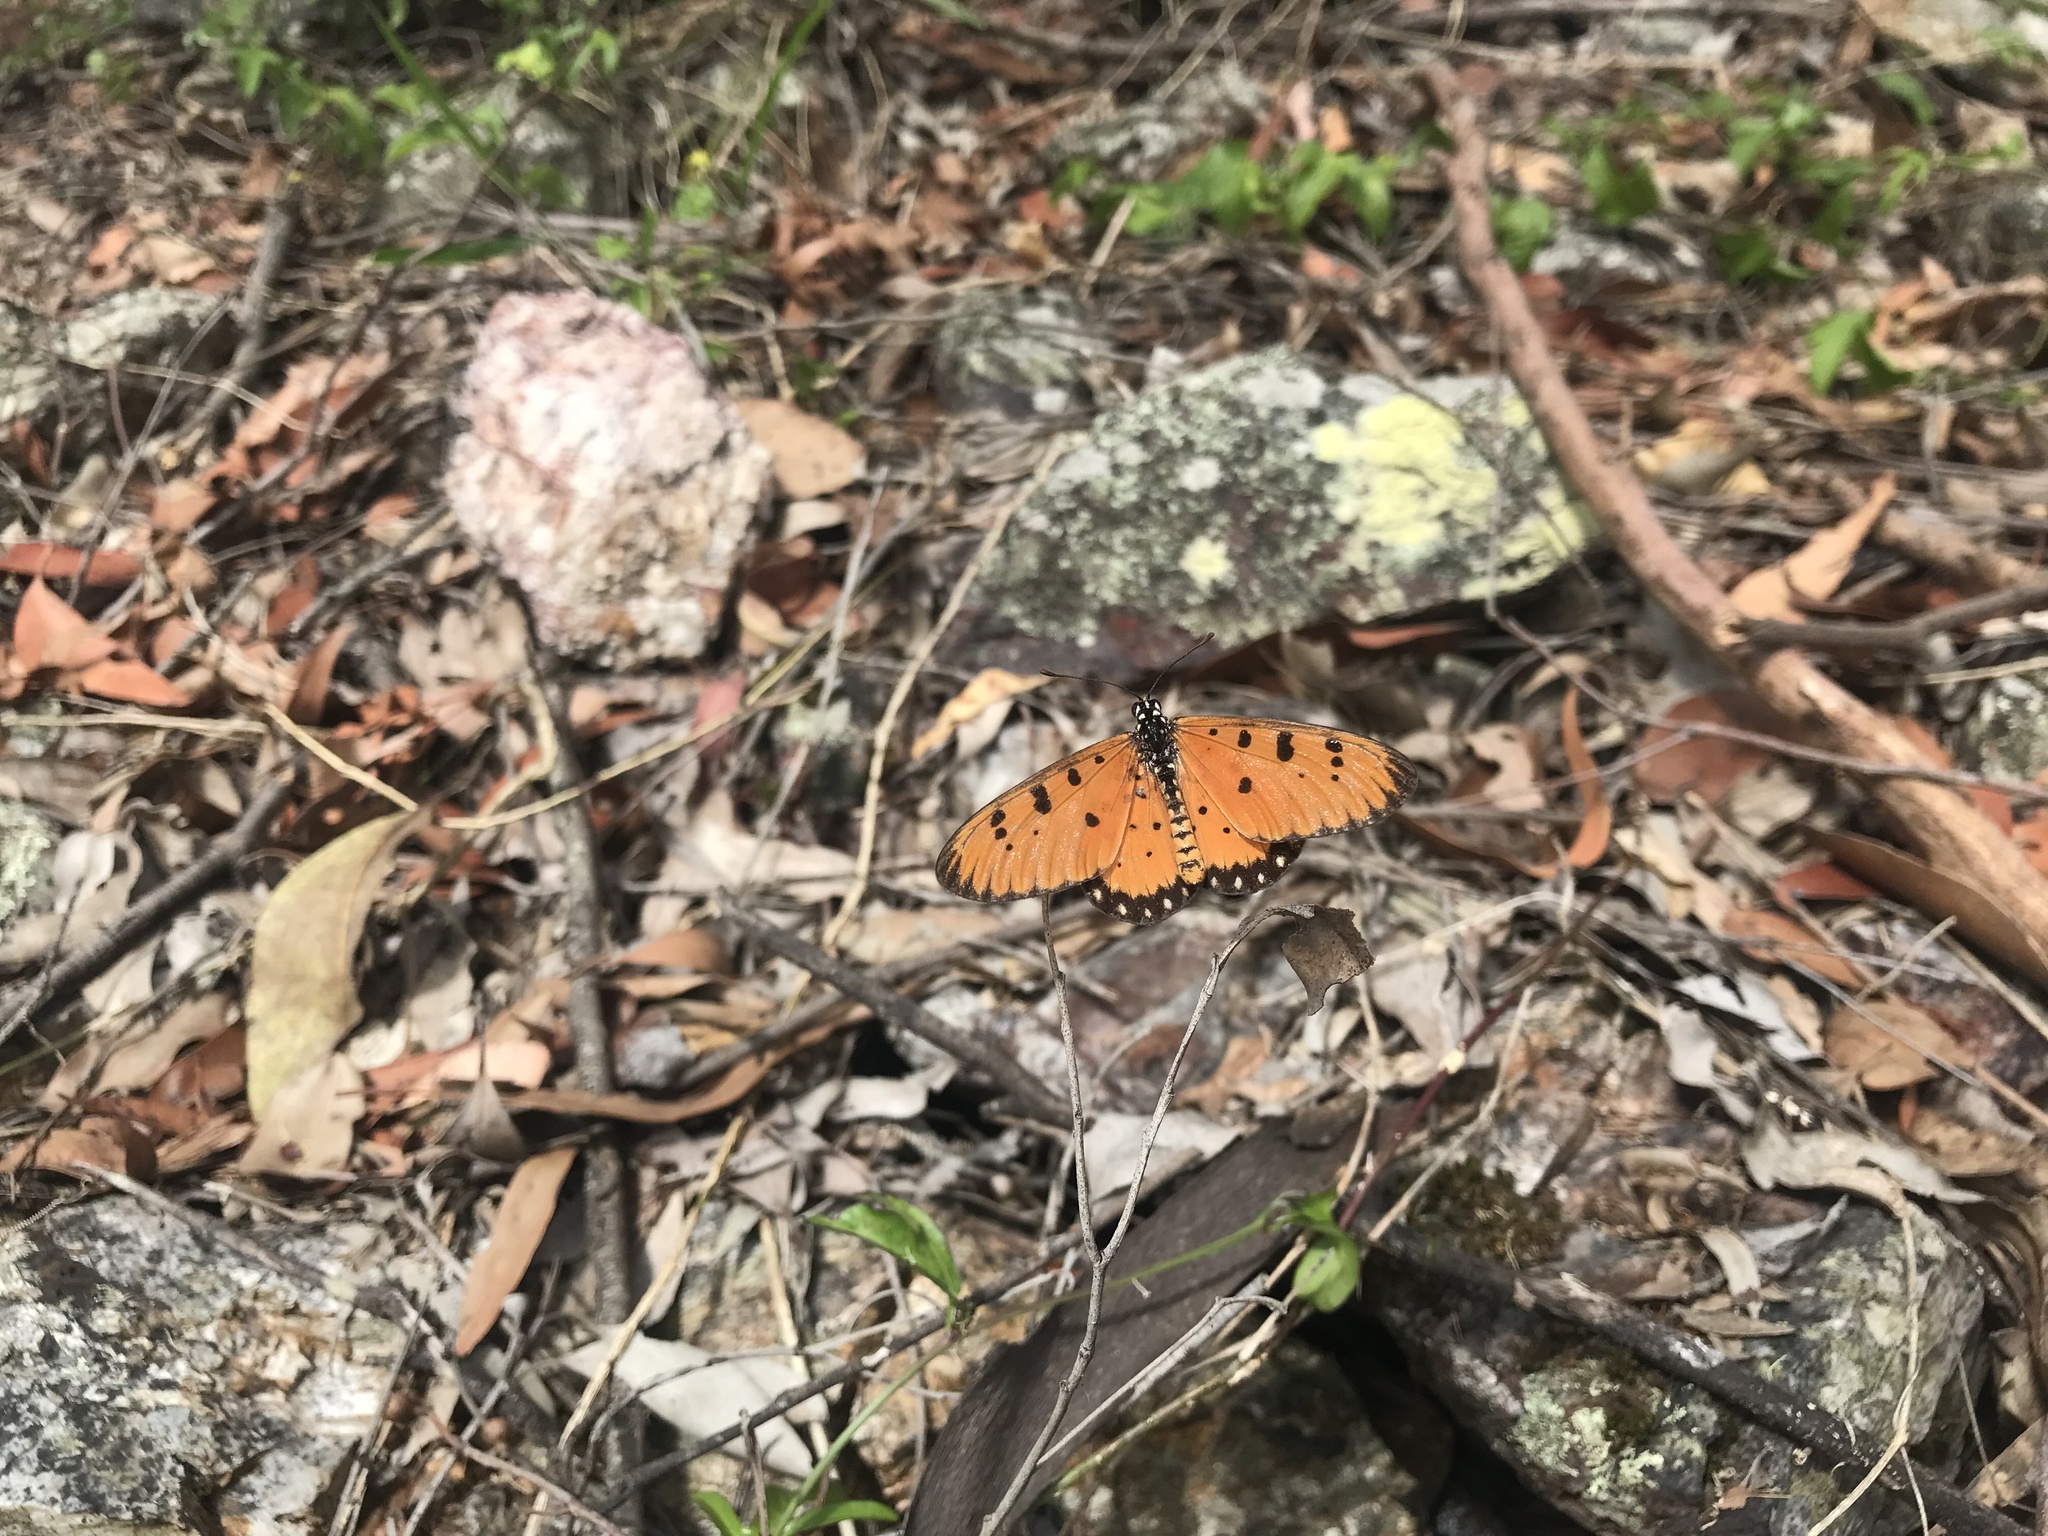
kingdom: Animalia
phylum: Arthropoda
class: Insecta
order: Lepidoptera
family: Nymphalidae
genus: Acraea
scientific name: Acraea terpsicore
